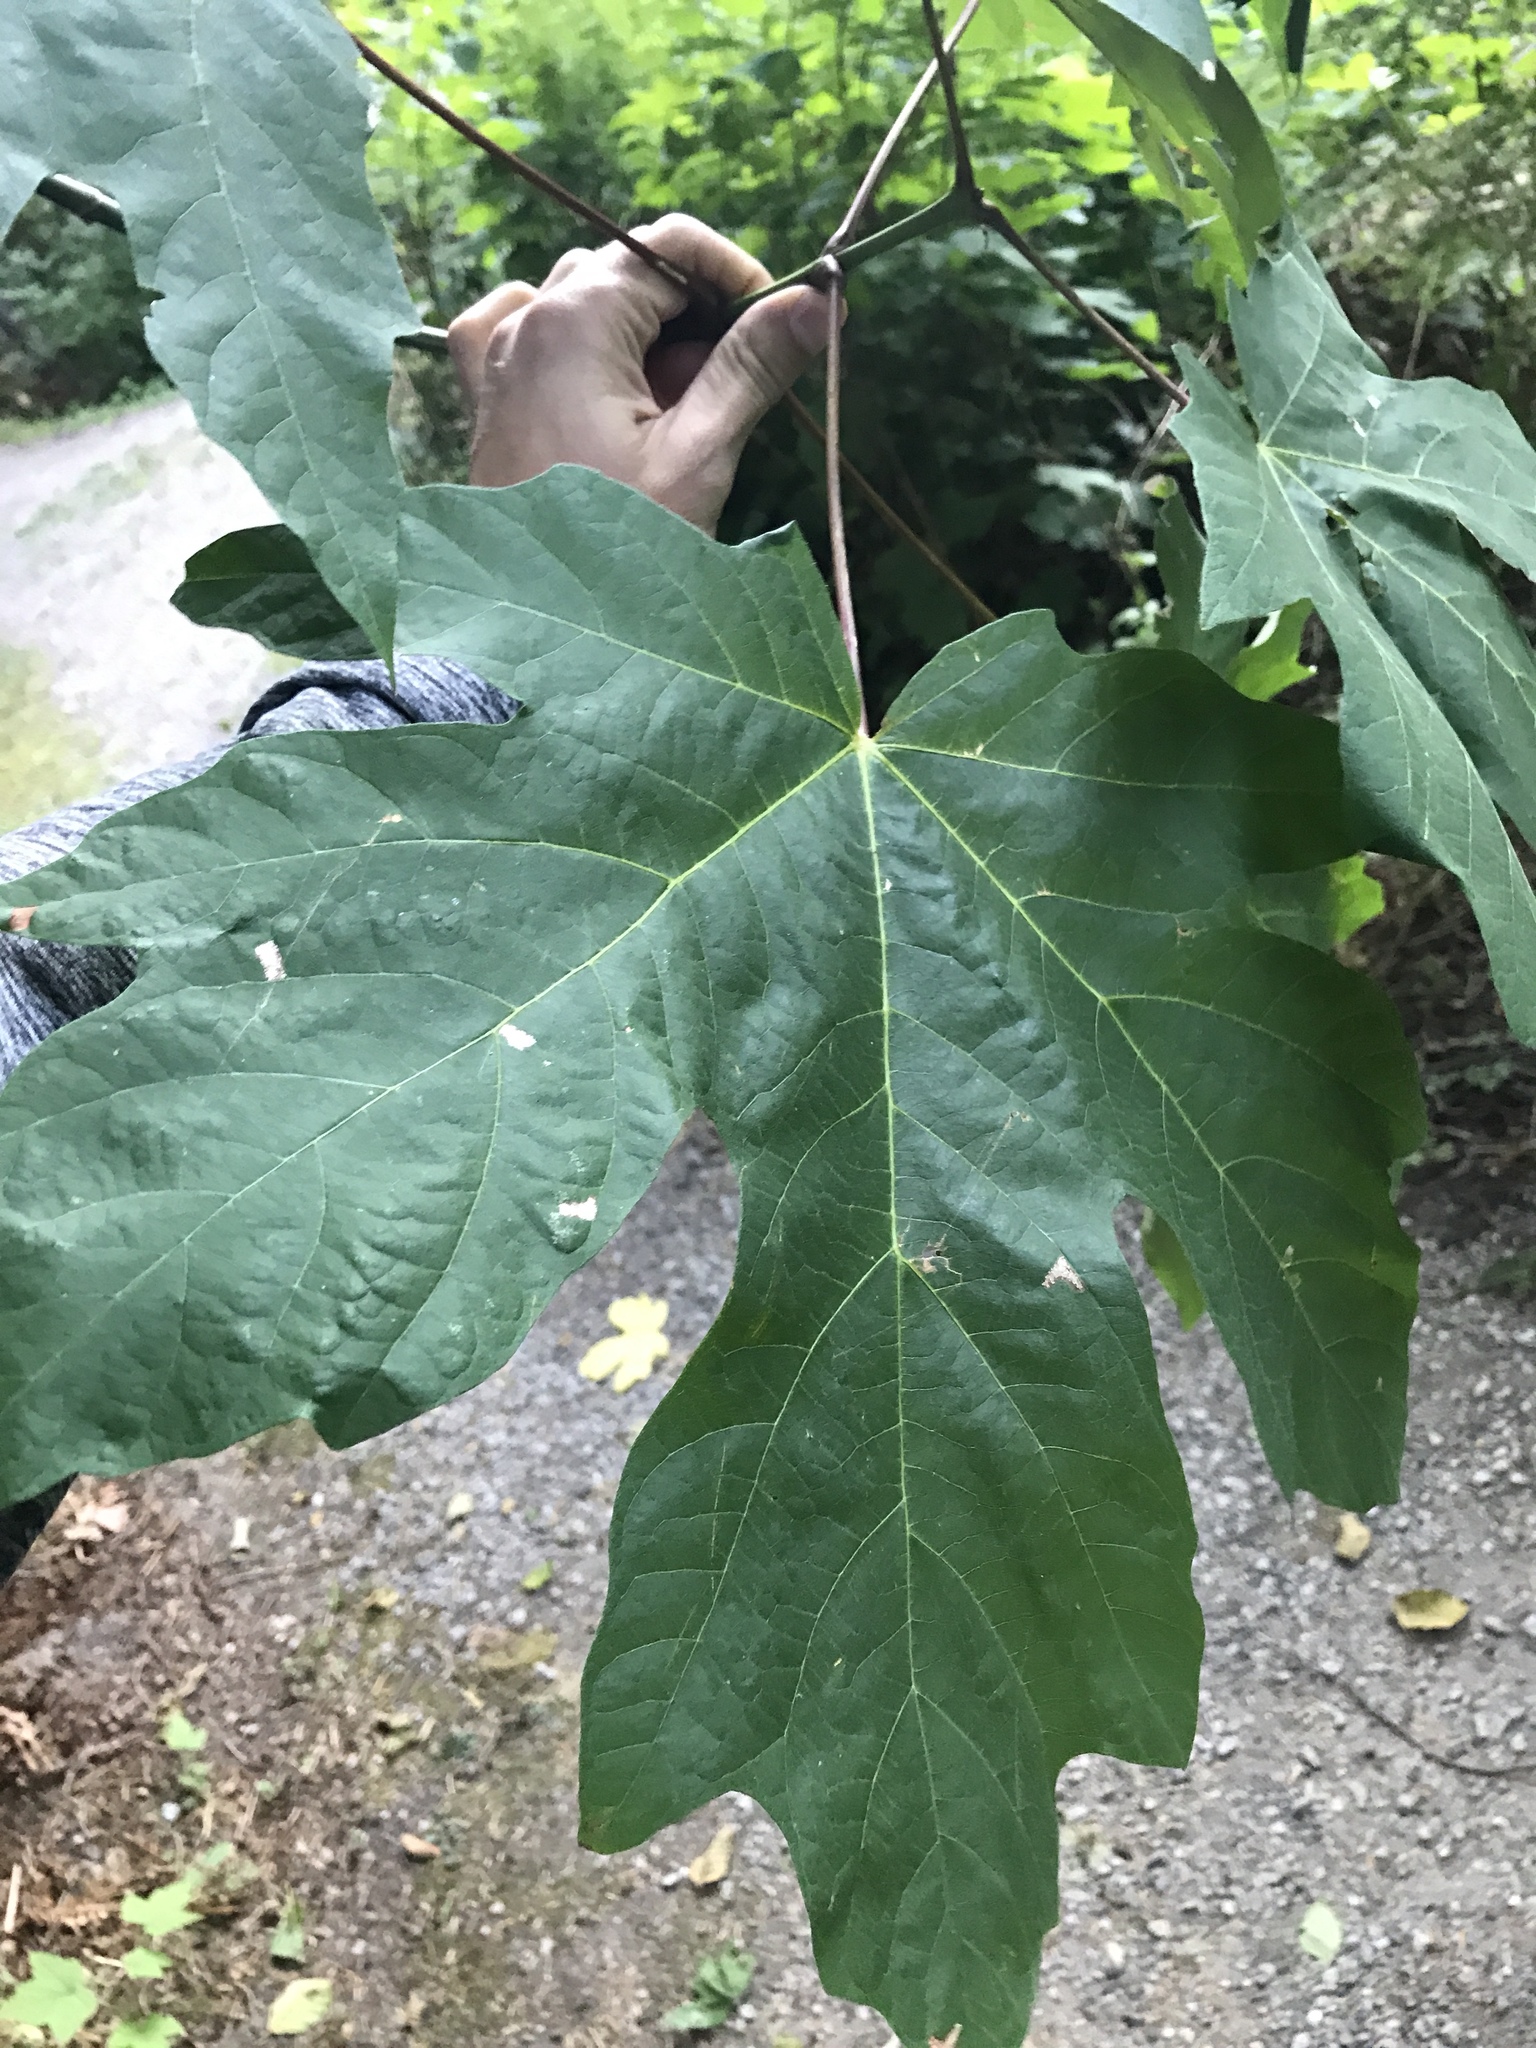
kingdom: Plantae
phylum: Tracheophyta
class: Magnoliopsida
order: Sapindales
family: Sapindaceae
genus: Acer
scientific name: Acer macrophyllum
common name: Oregon maple
